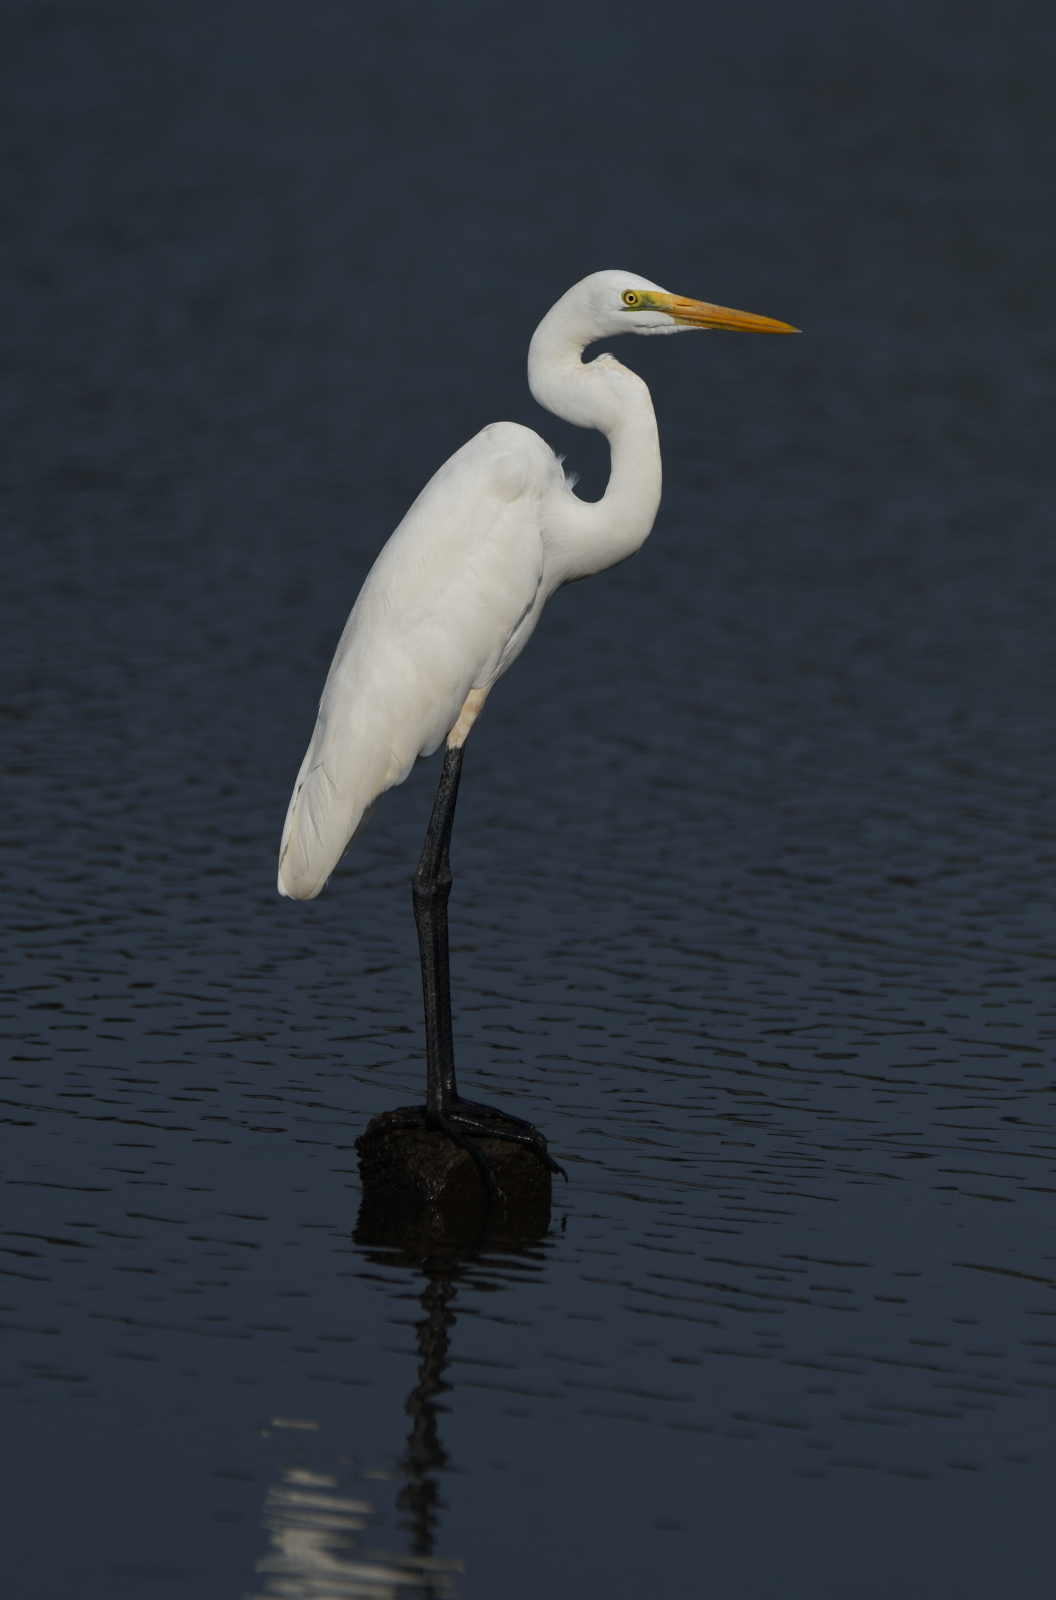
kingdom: Animalia
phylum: Chordata
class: Aves
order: Pelecaniformes
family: Ardeidae
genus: Ardea
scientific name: Ardea alba
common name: Great egret
